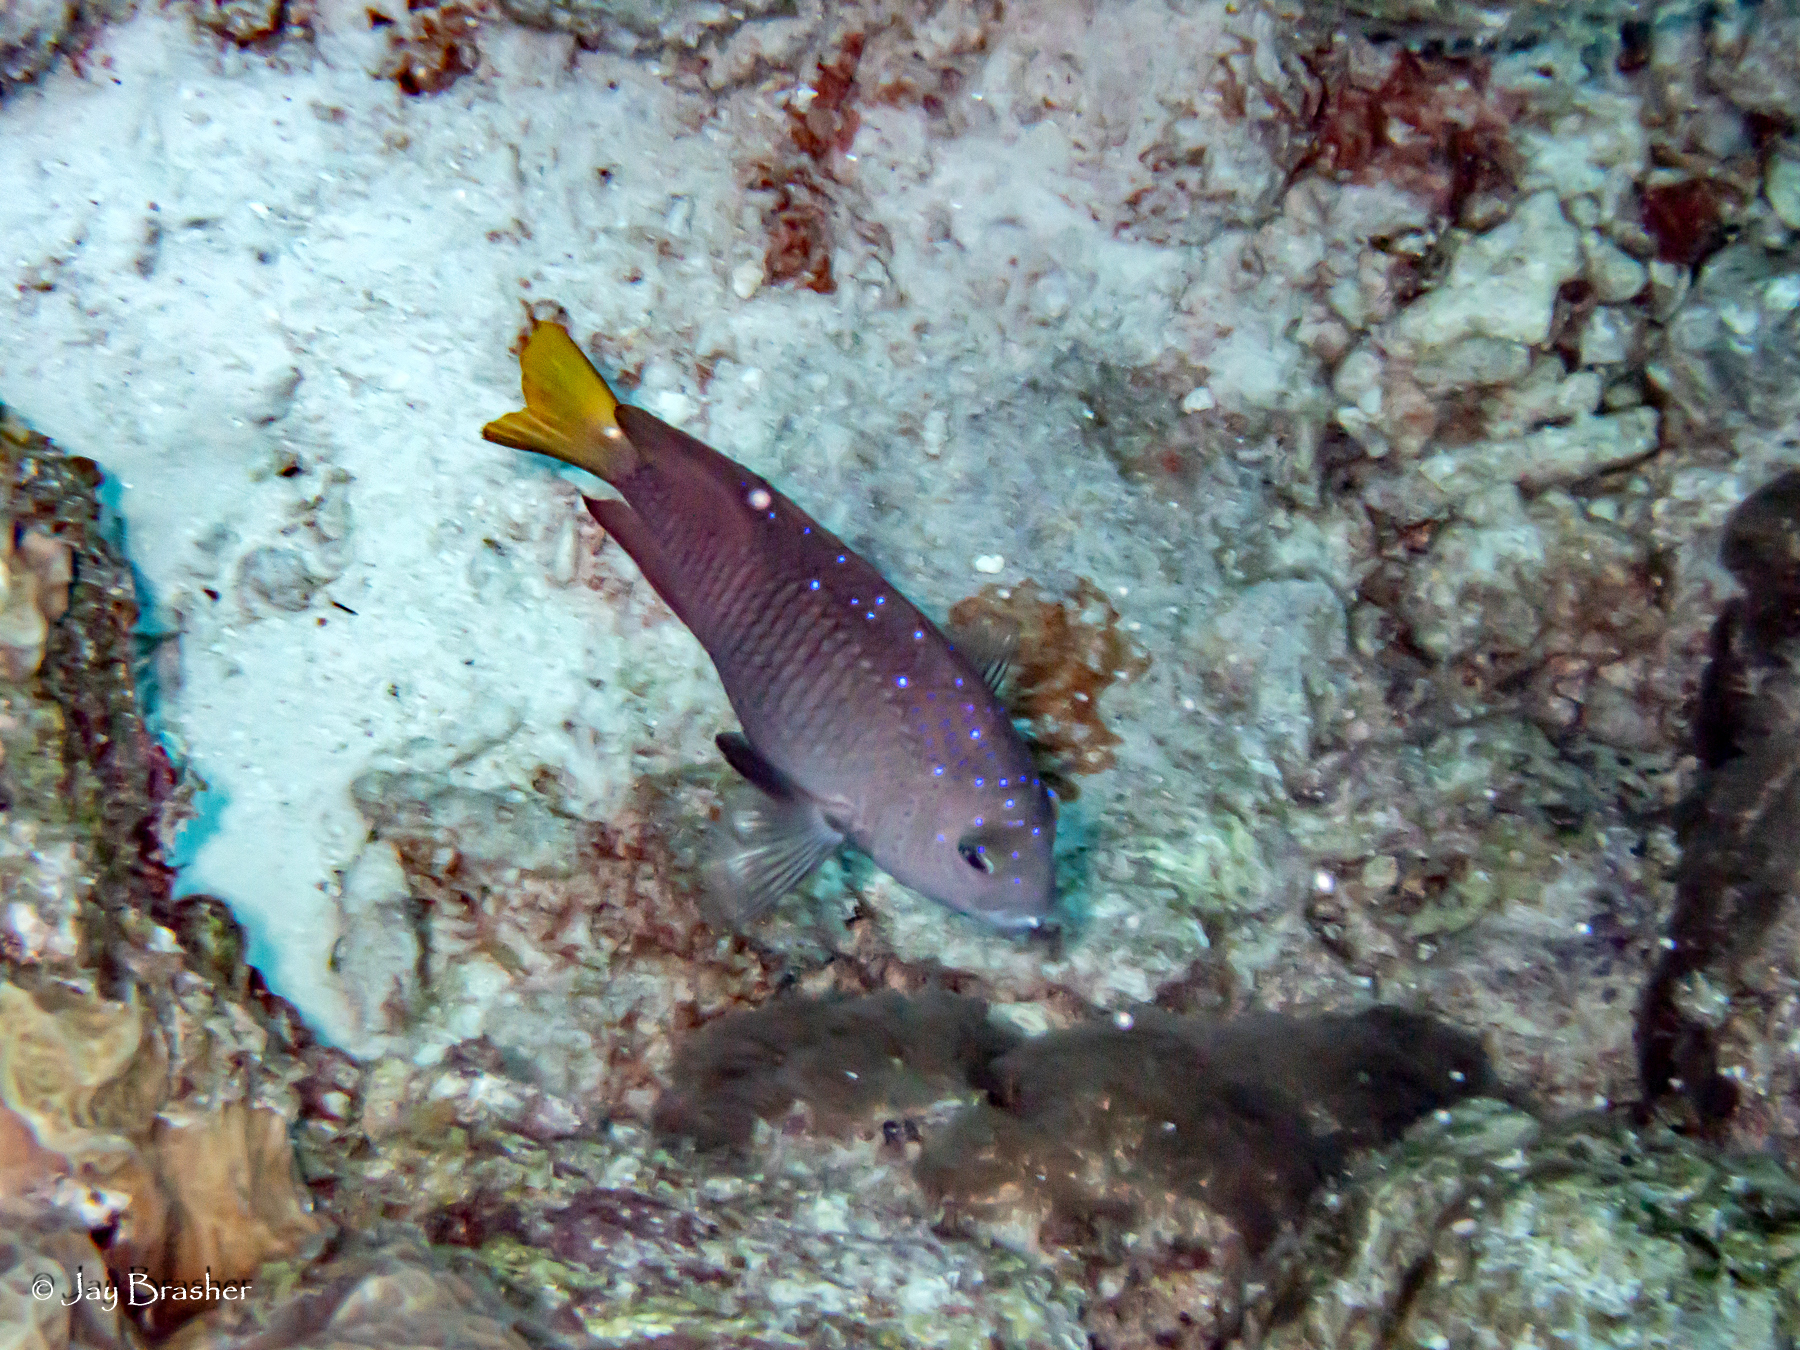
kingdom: Animalia
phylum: Chordata
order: Perciformes
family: Pomacentridae
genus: Microspathodon
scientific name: Microspathodon chrysurus
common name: Yellowtail damselfish
